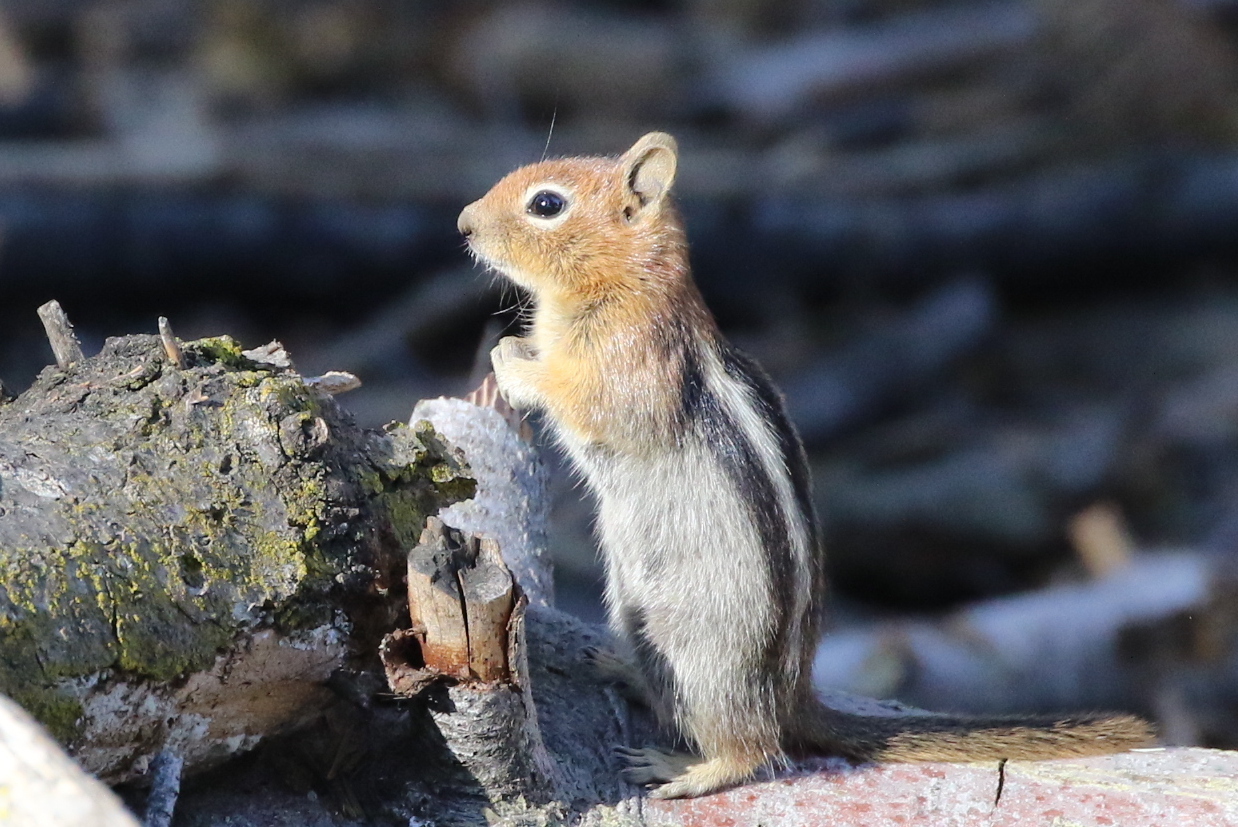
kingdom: Animalia
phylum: Chordata
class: Mammalia
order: Rodentia
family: Sciuridae
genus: Callospermophilus
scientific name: Callospermophilus lateralis
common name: Golden-mantled ground squirrel
